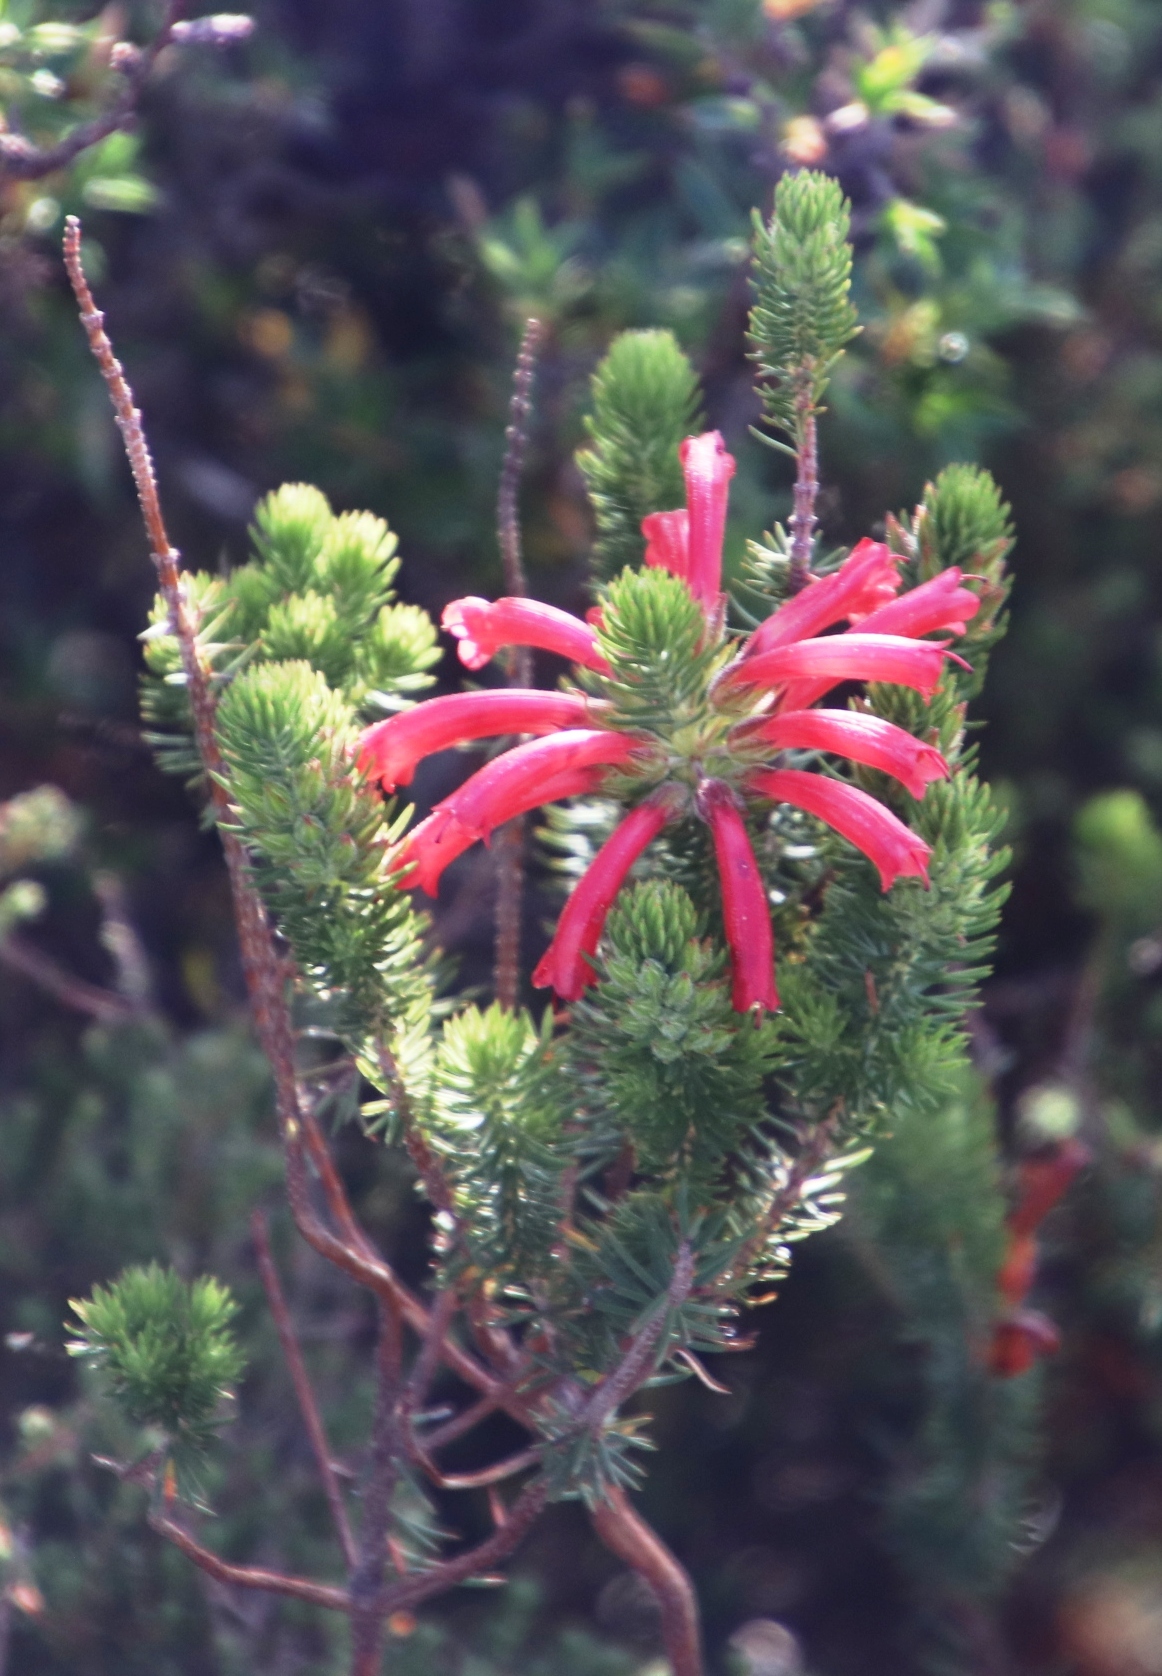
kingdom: Plantae
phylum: Tracheophyta
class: Magnoliopsida
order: Ericales
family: Ericaceae
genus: Erica
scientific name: Erica abietina
